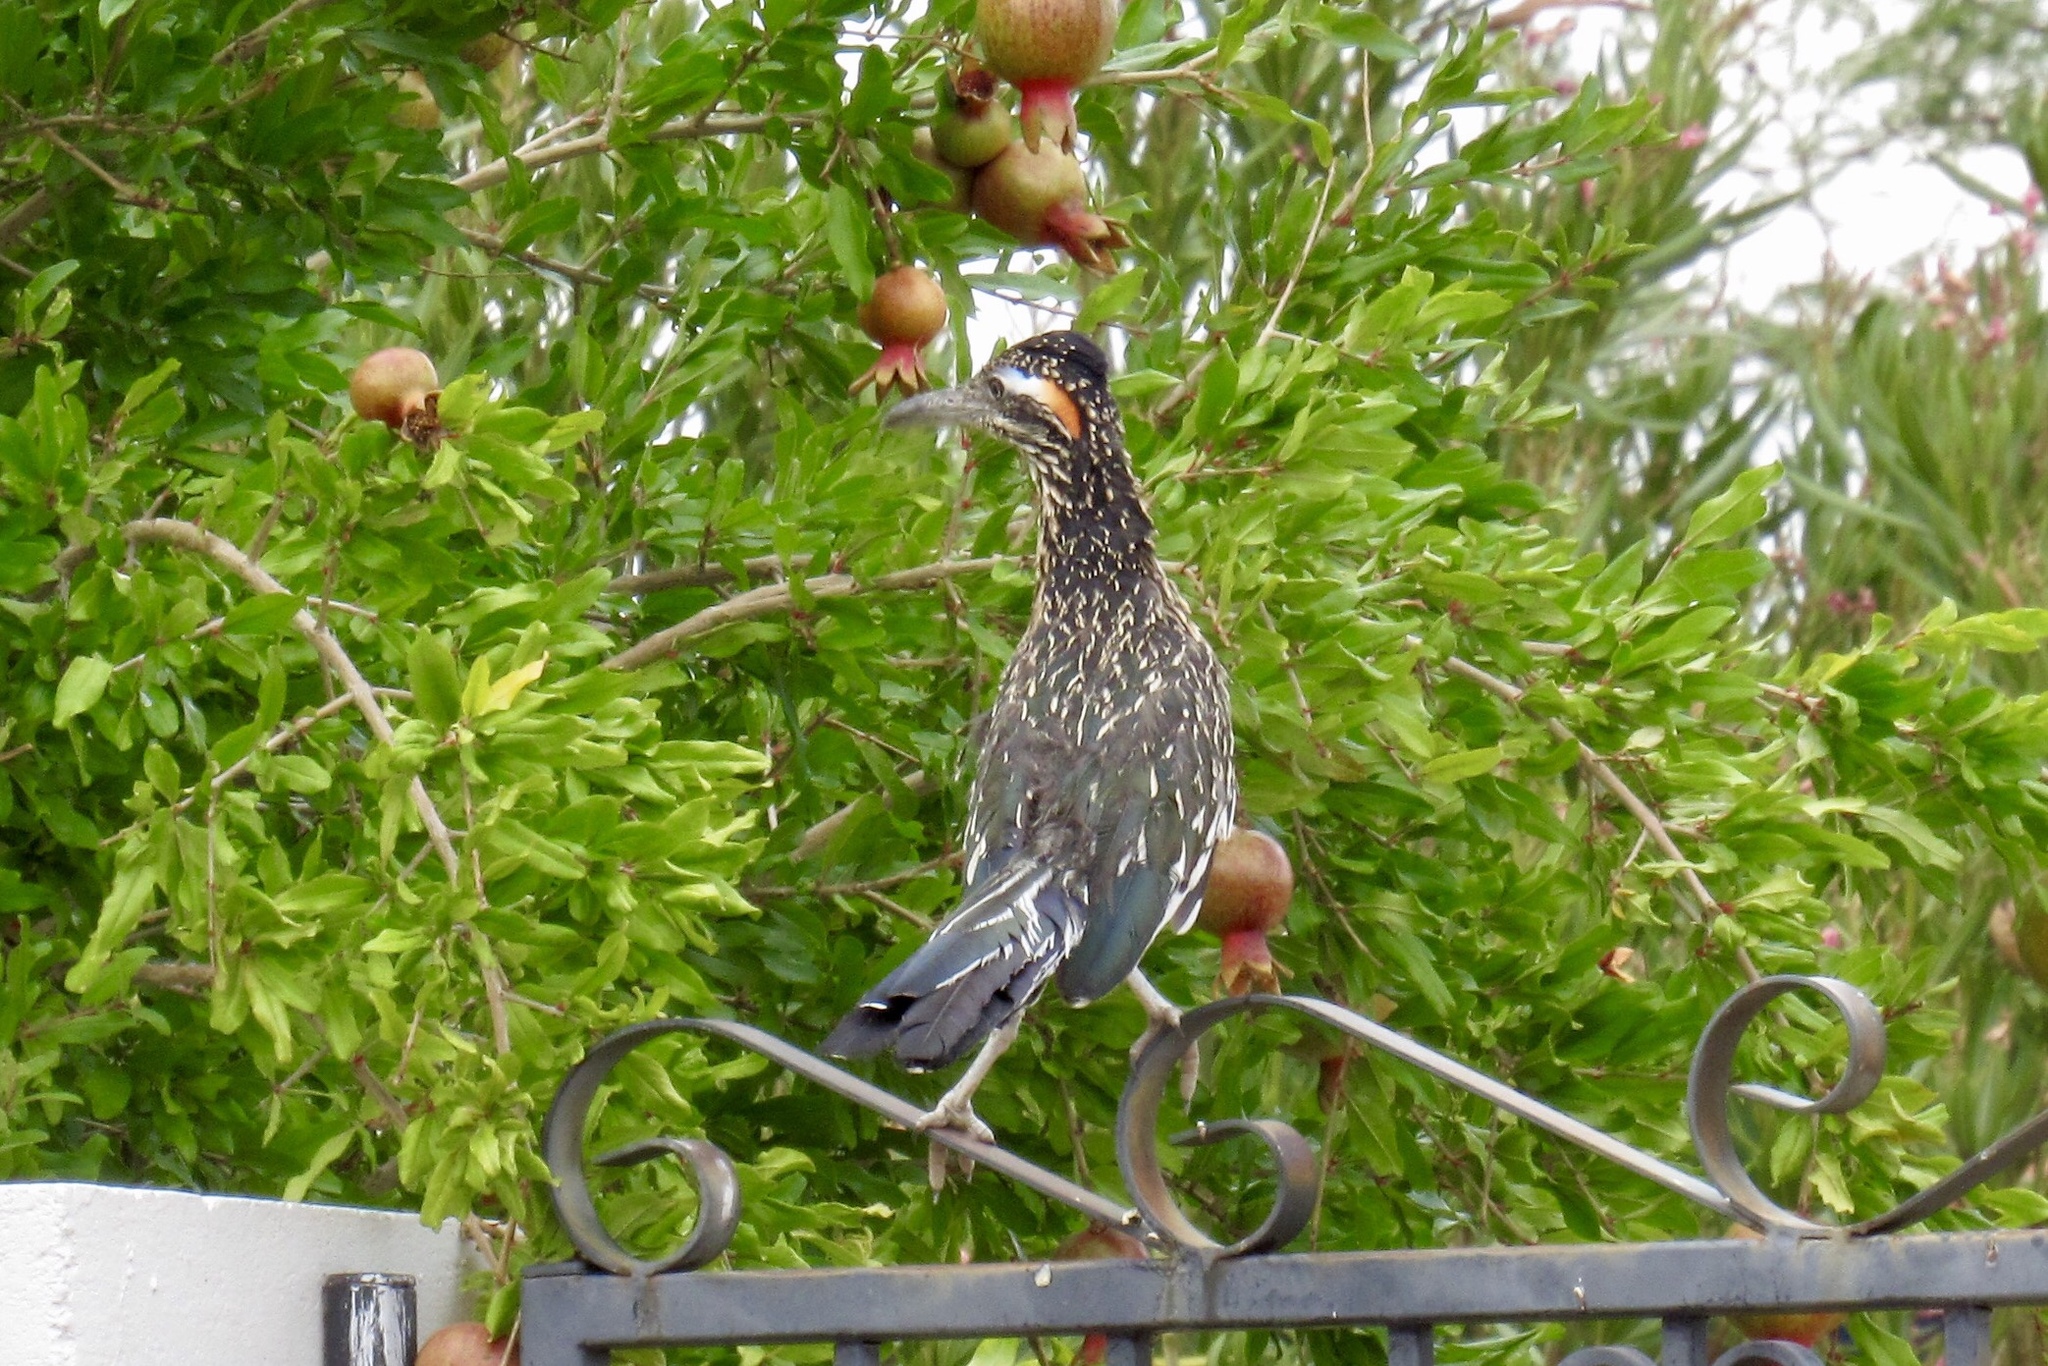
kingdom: Animalia
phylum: Chordata
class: Aves
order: Cuculiformes
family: Cuculidae
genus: Geococcyx
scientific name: Geococcyx californianus
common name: Greater roadrunner
